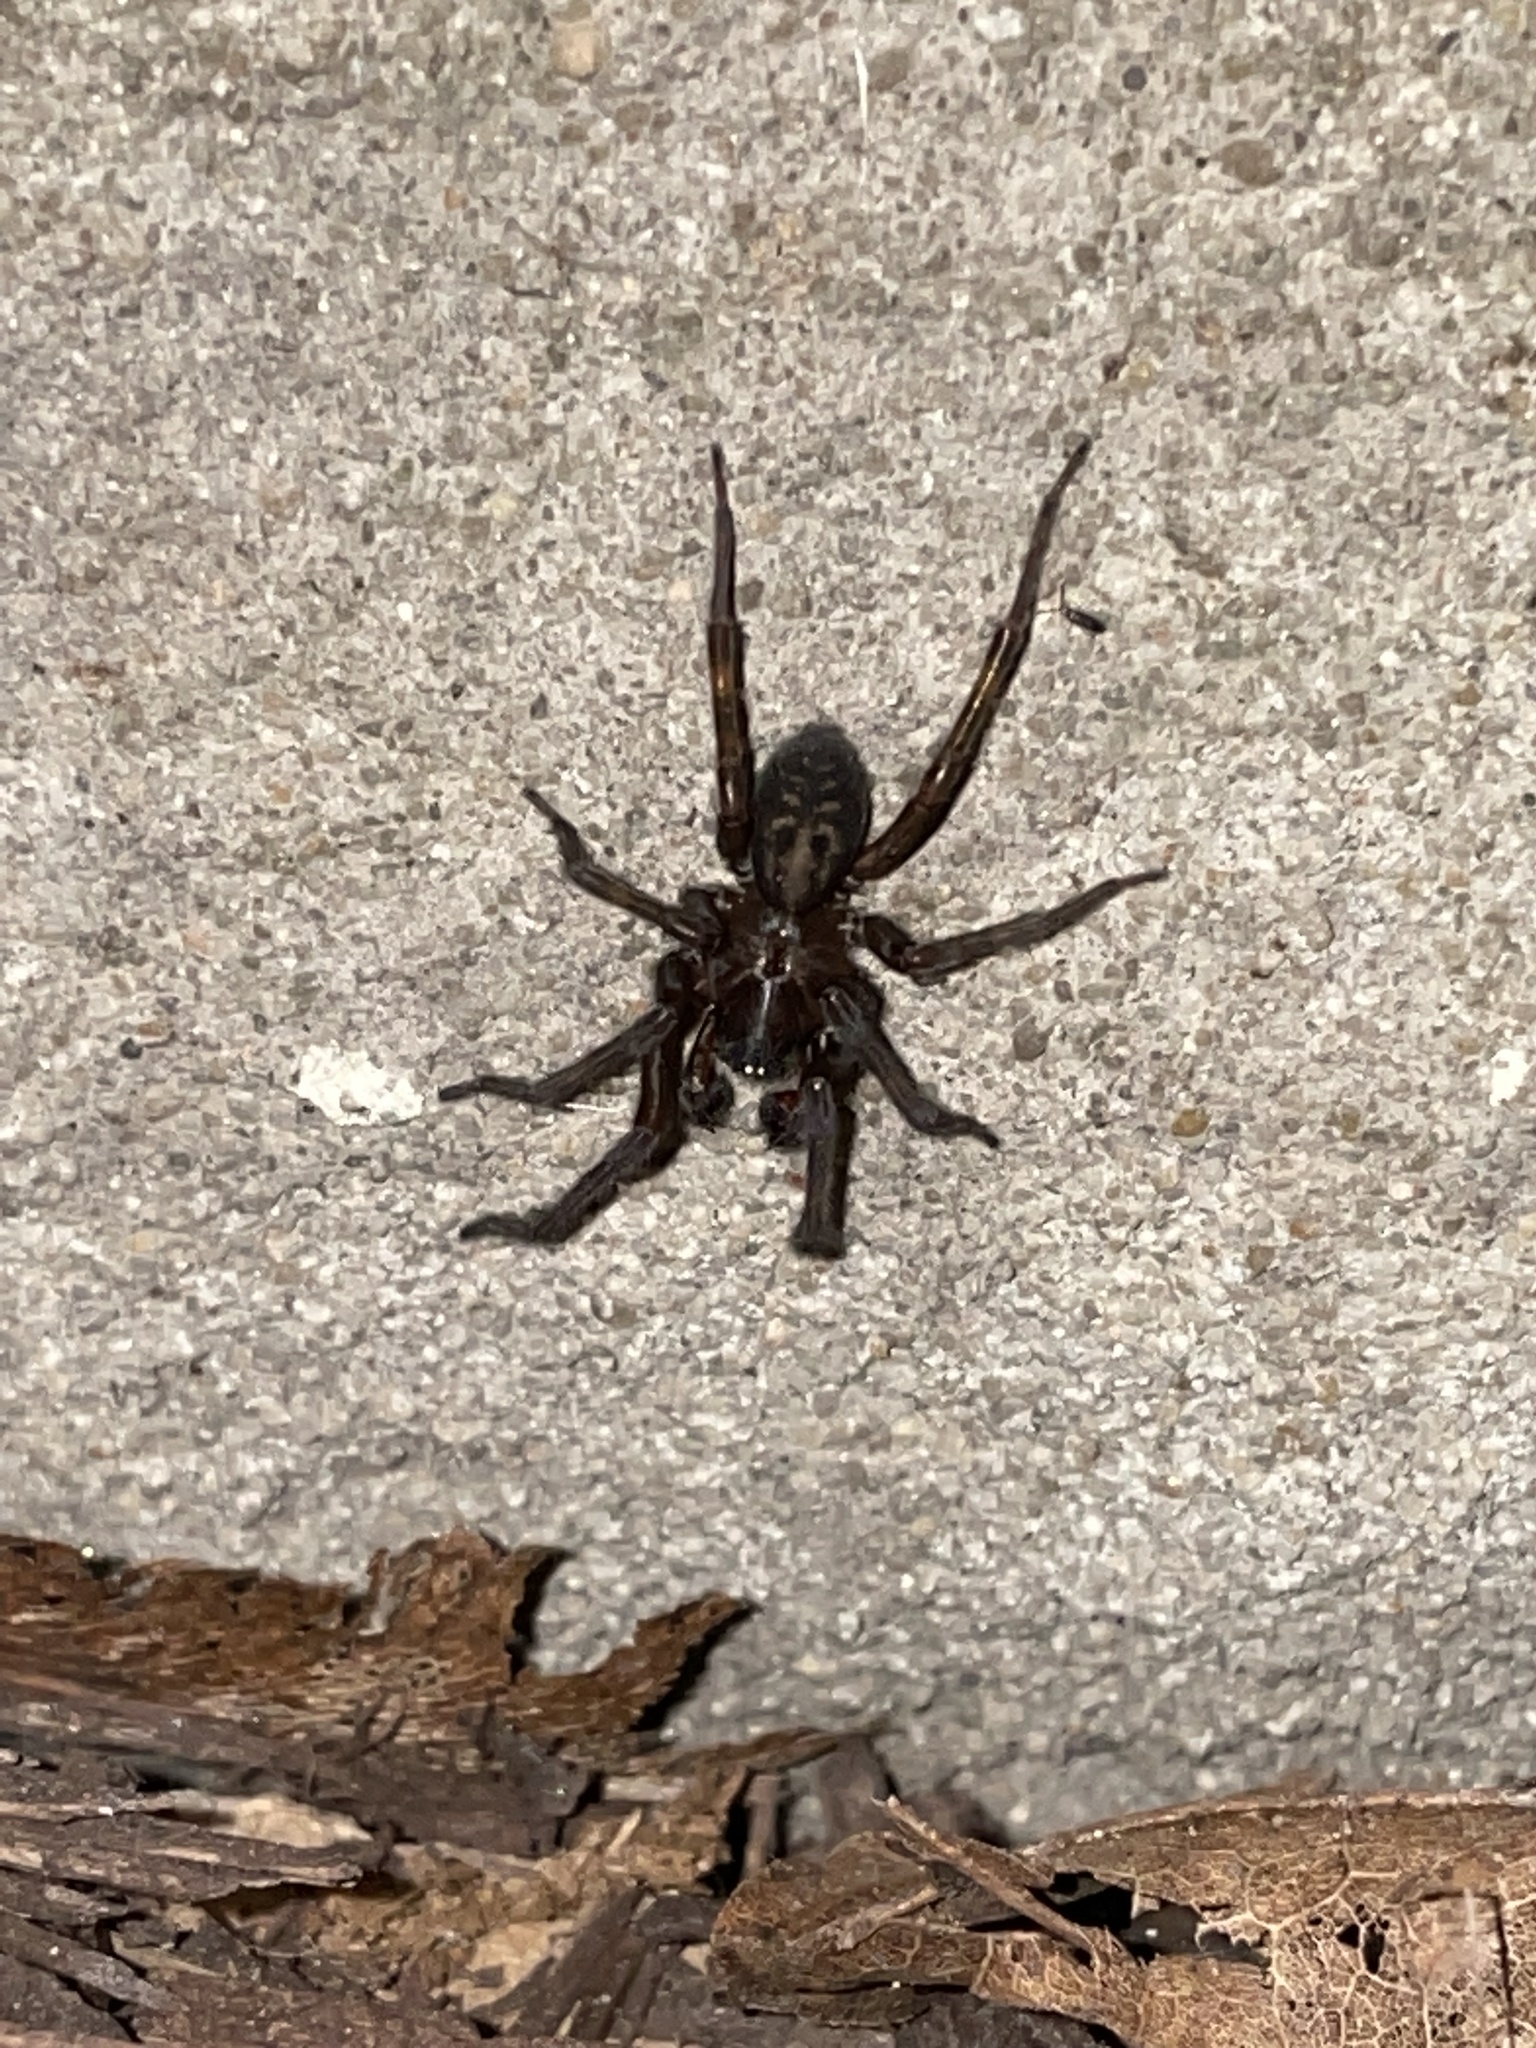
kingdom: Animalia
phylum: Arthropoda
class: Arachnida
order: Araneae
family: Amaurobiidae
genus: Amaurobius
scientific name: Amaurobius ferox
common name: Black laceweaver
